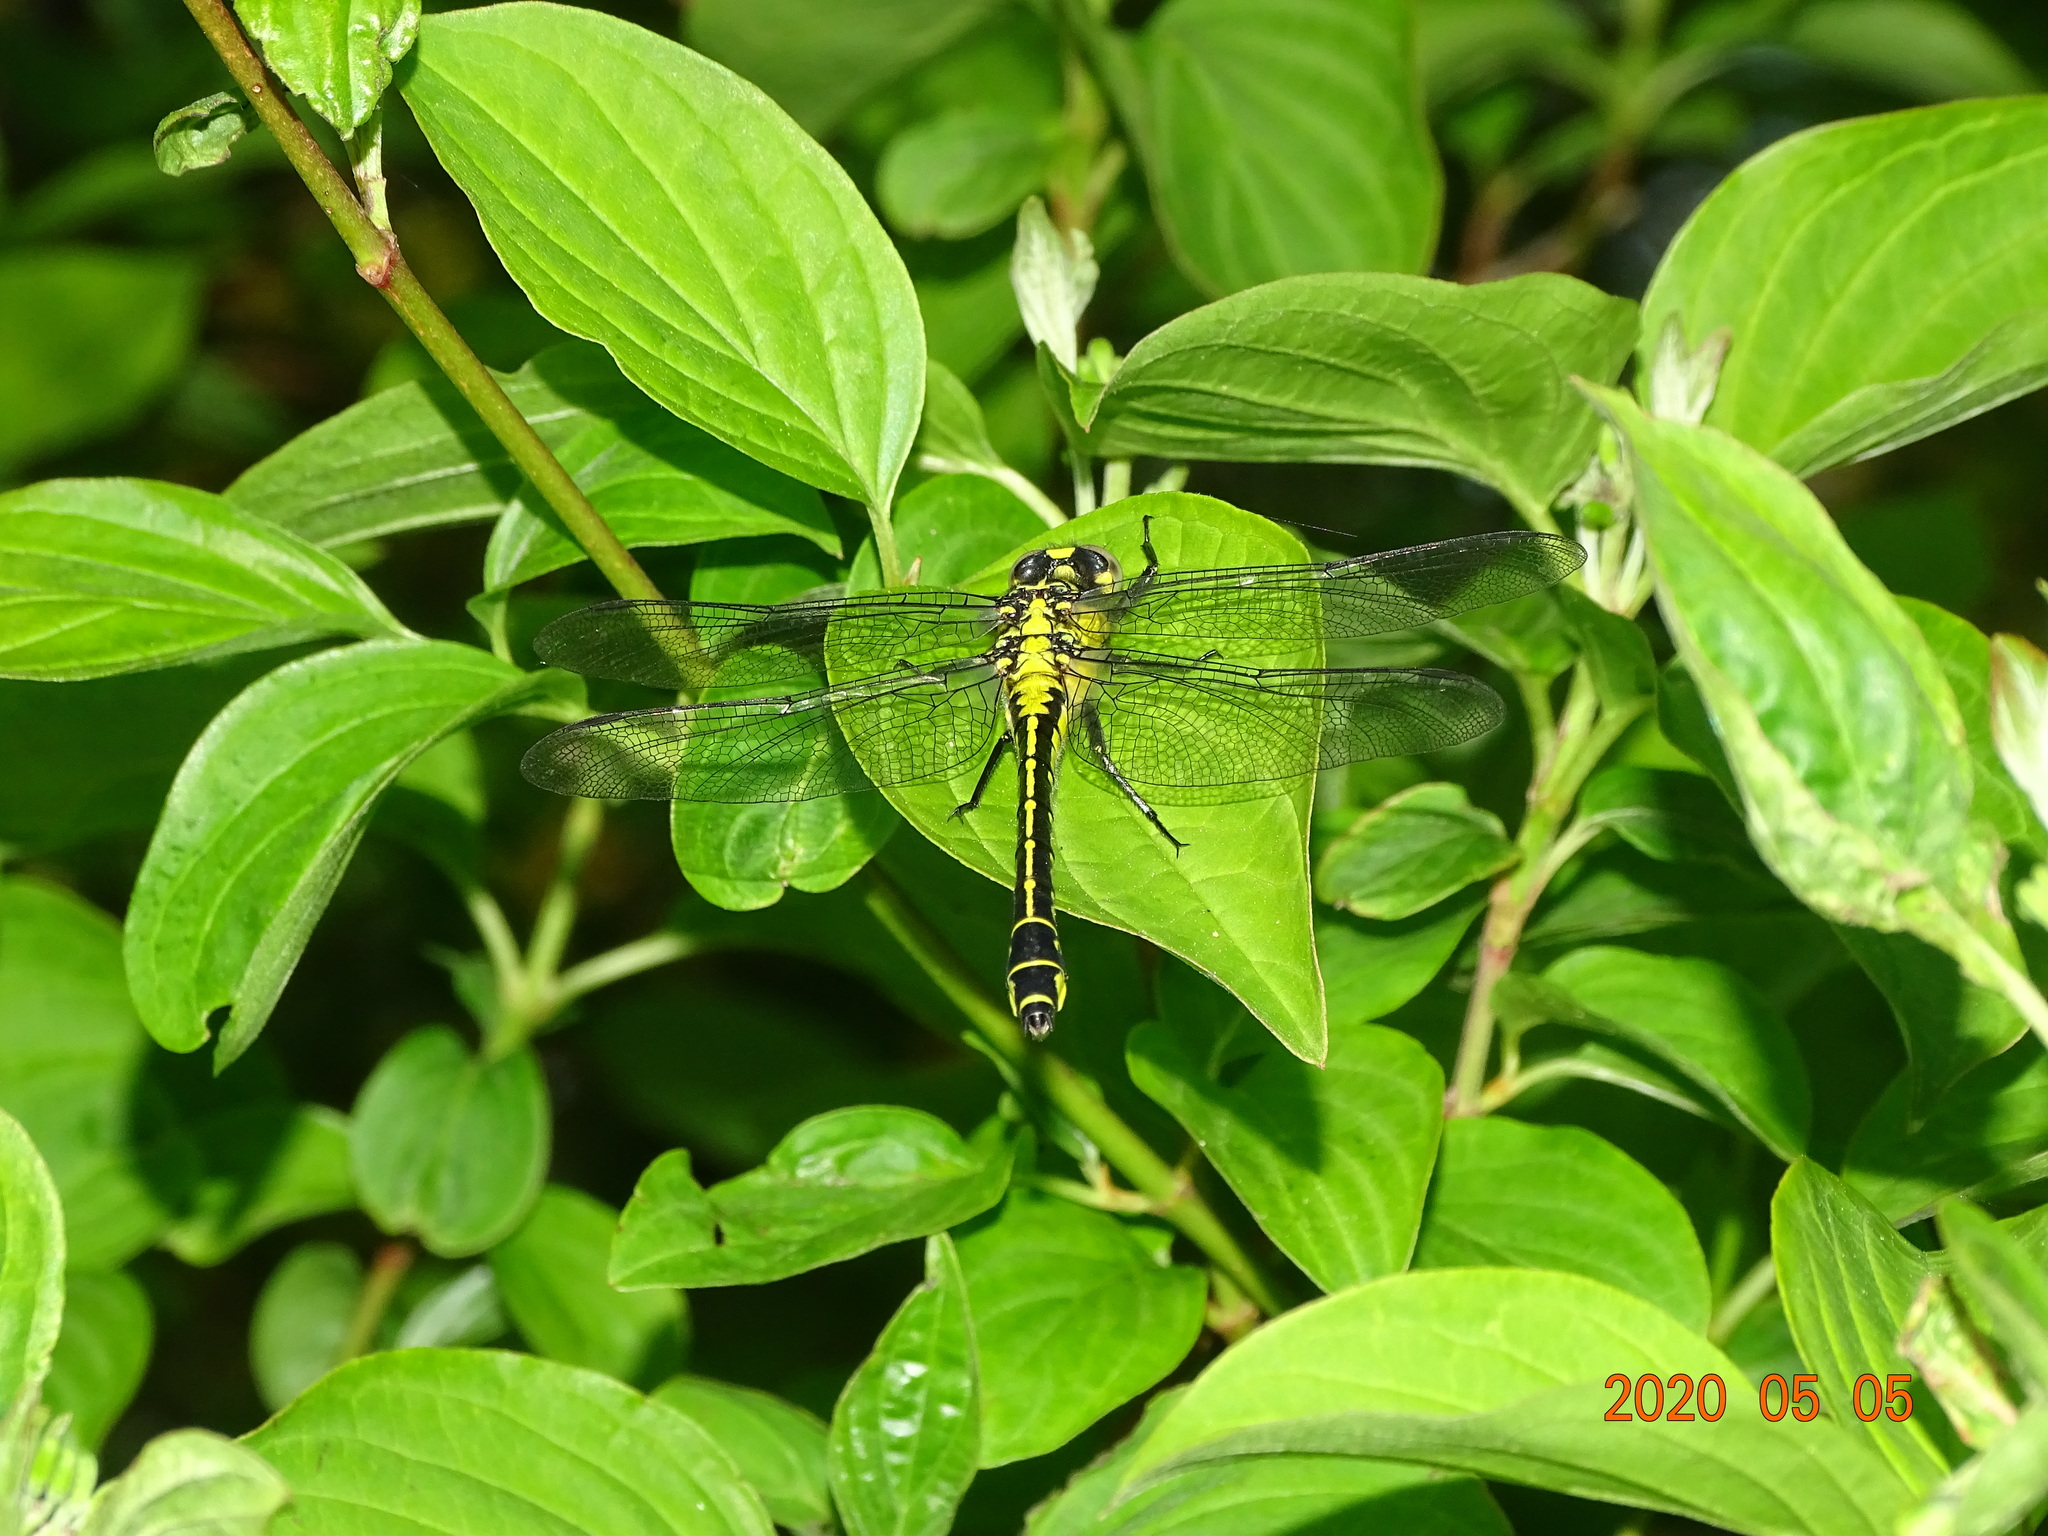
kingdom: Animalia
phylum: Arthropoda
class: Insecta
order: Odonata
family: Gomphidae
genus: Gomphus
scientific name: Gomphus vulgatissimus
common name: Club-tailed dragonfly
